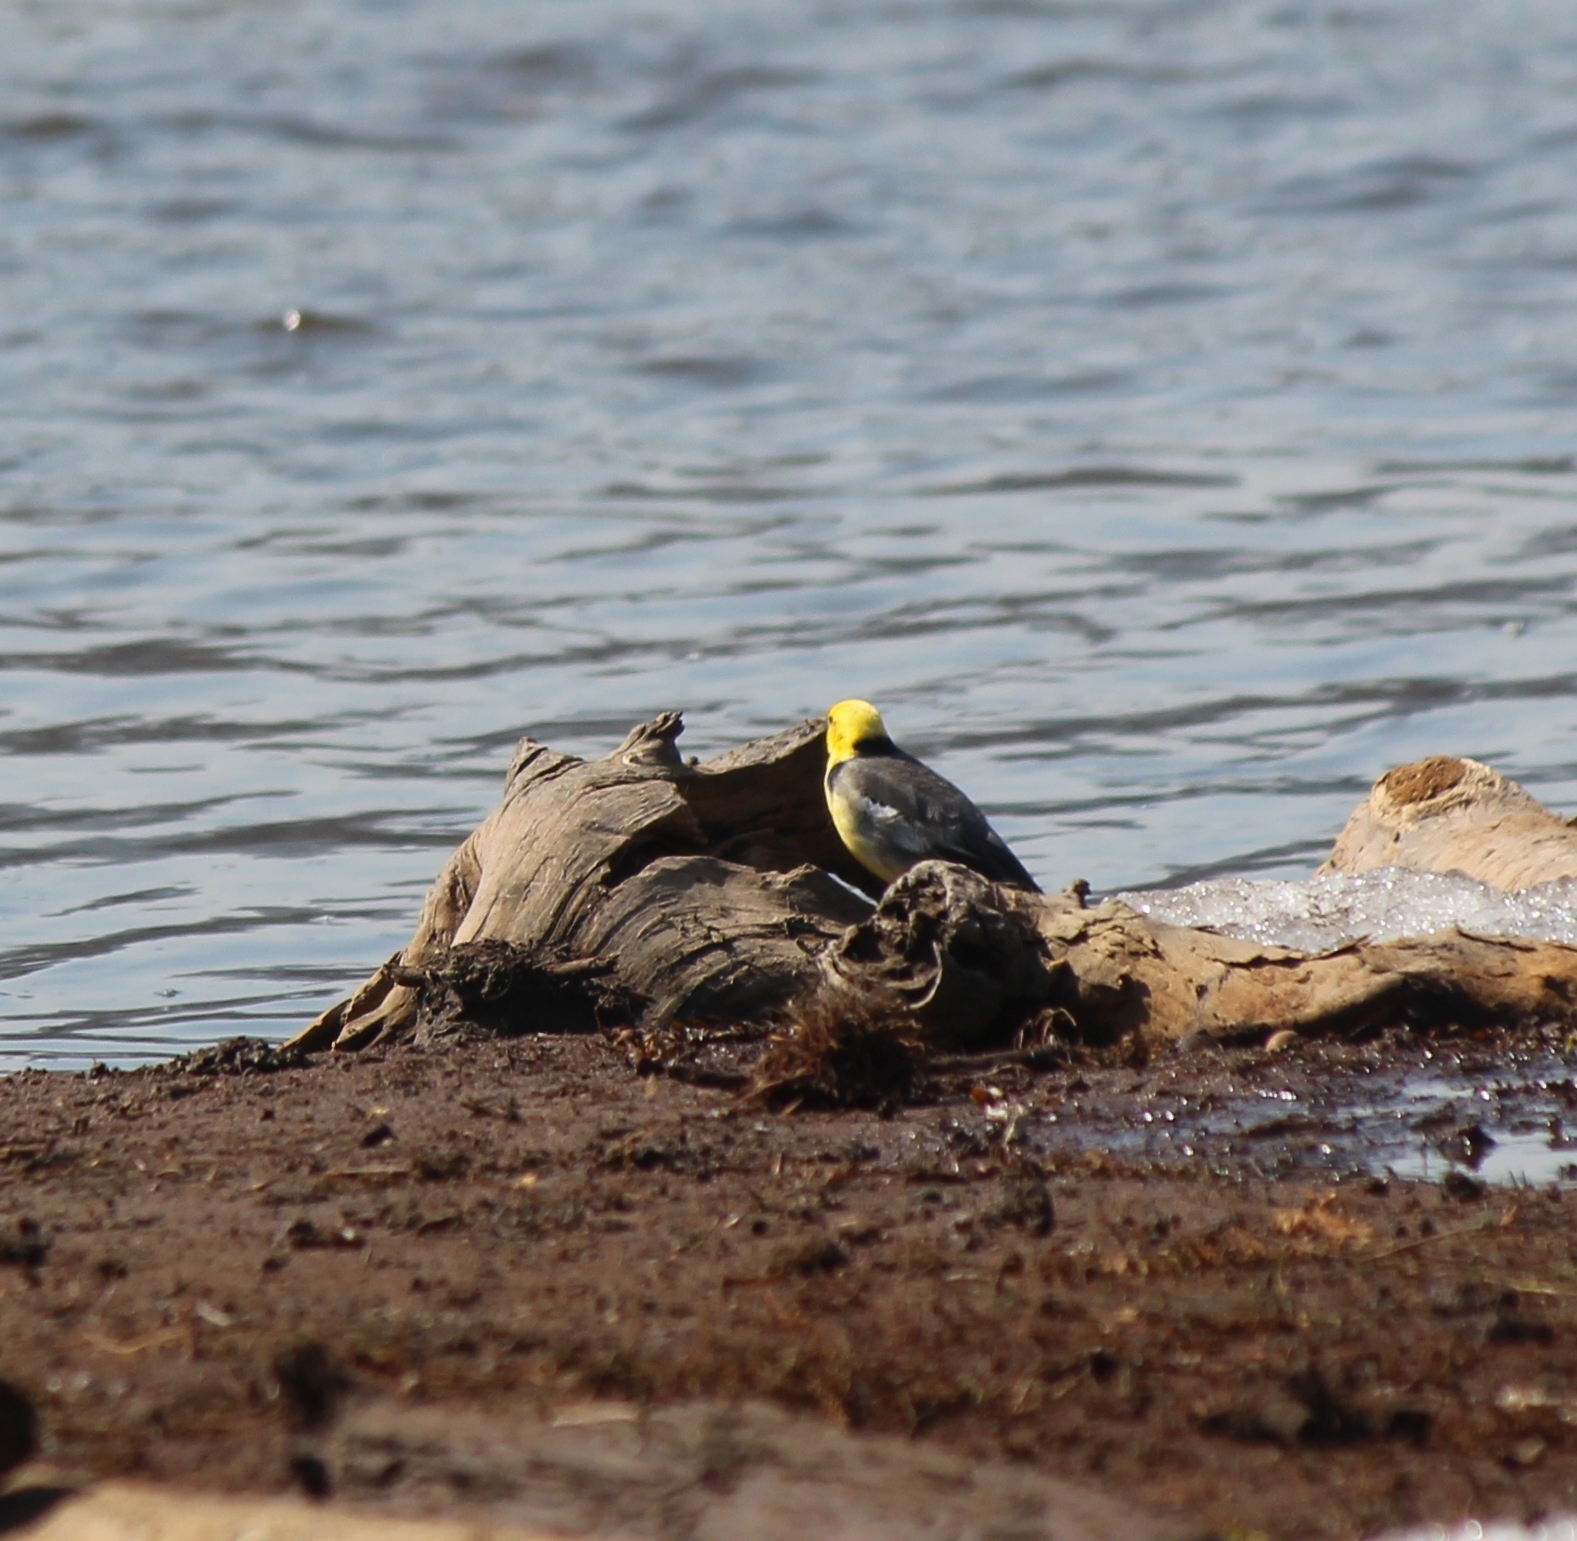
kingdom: Animalia
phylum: Chordata
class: Aves
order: Passeriformes
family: Motacillidae
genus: Motacilla
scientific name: Motacilla citreola
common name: Citrine wagtail
